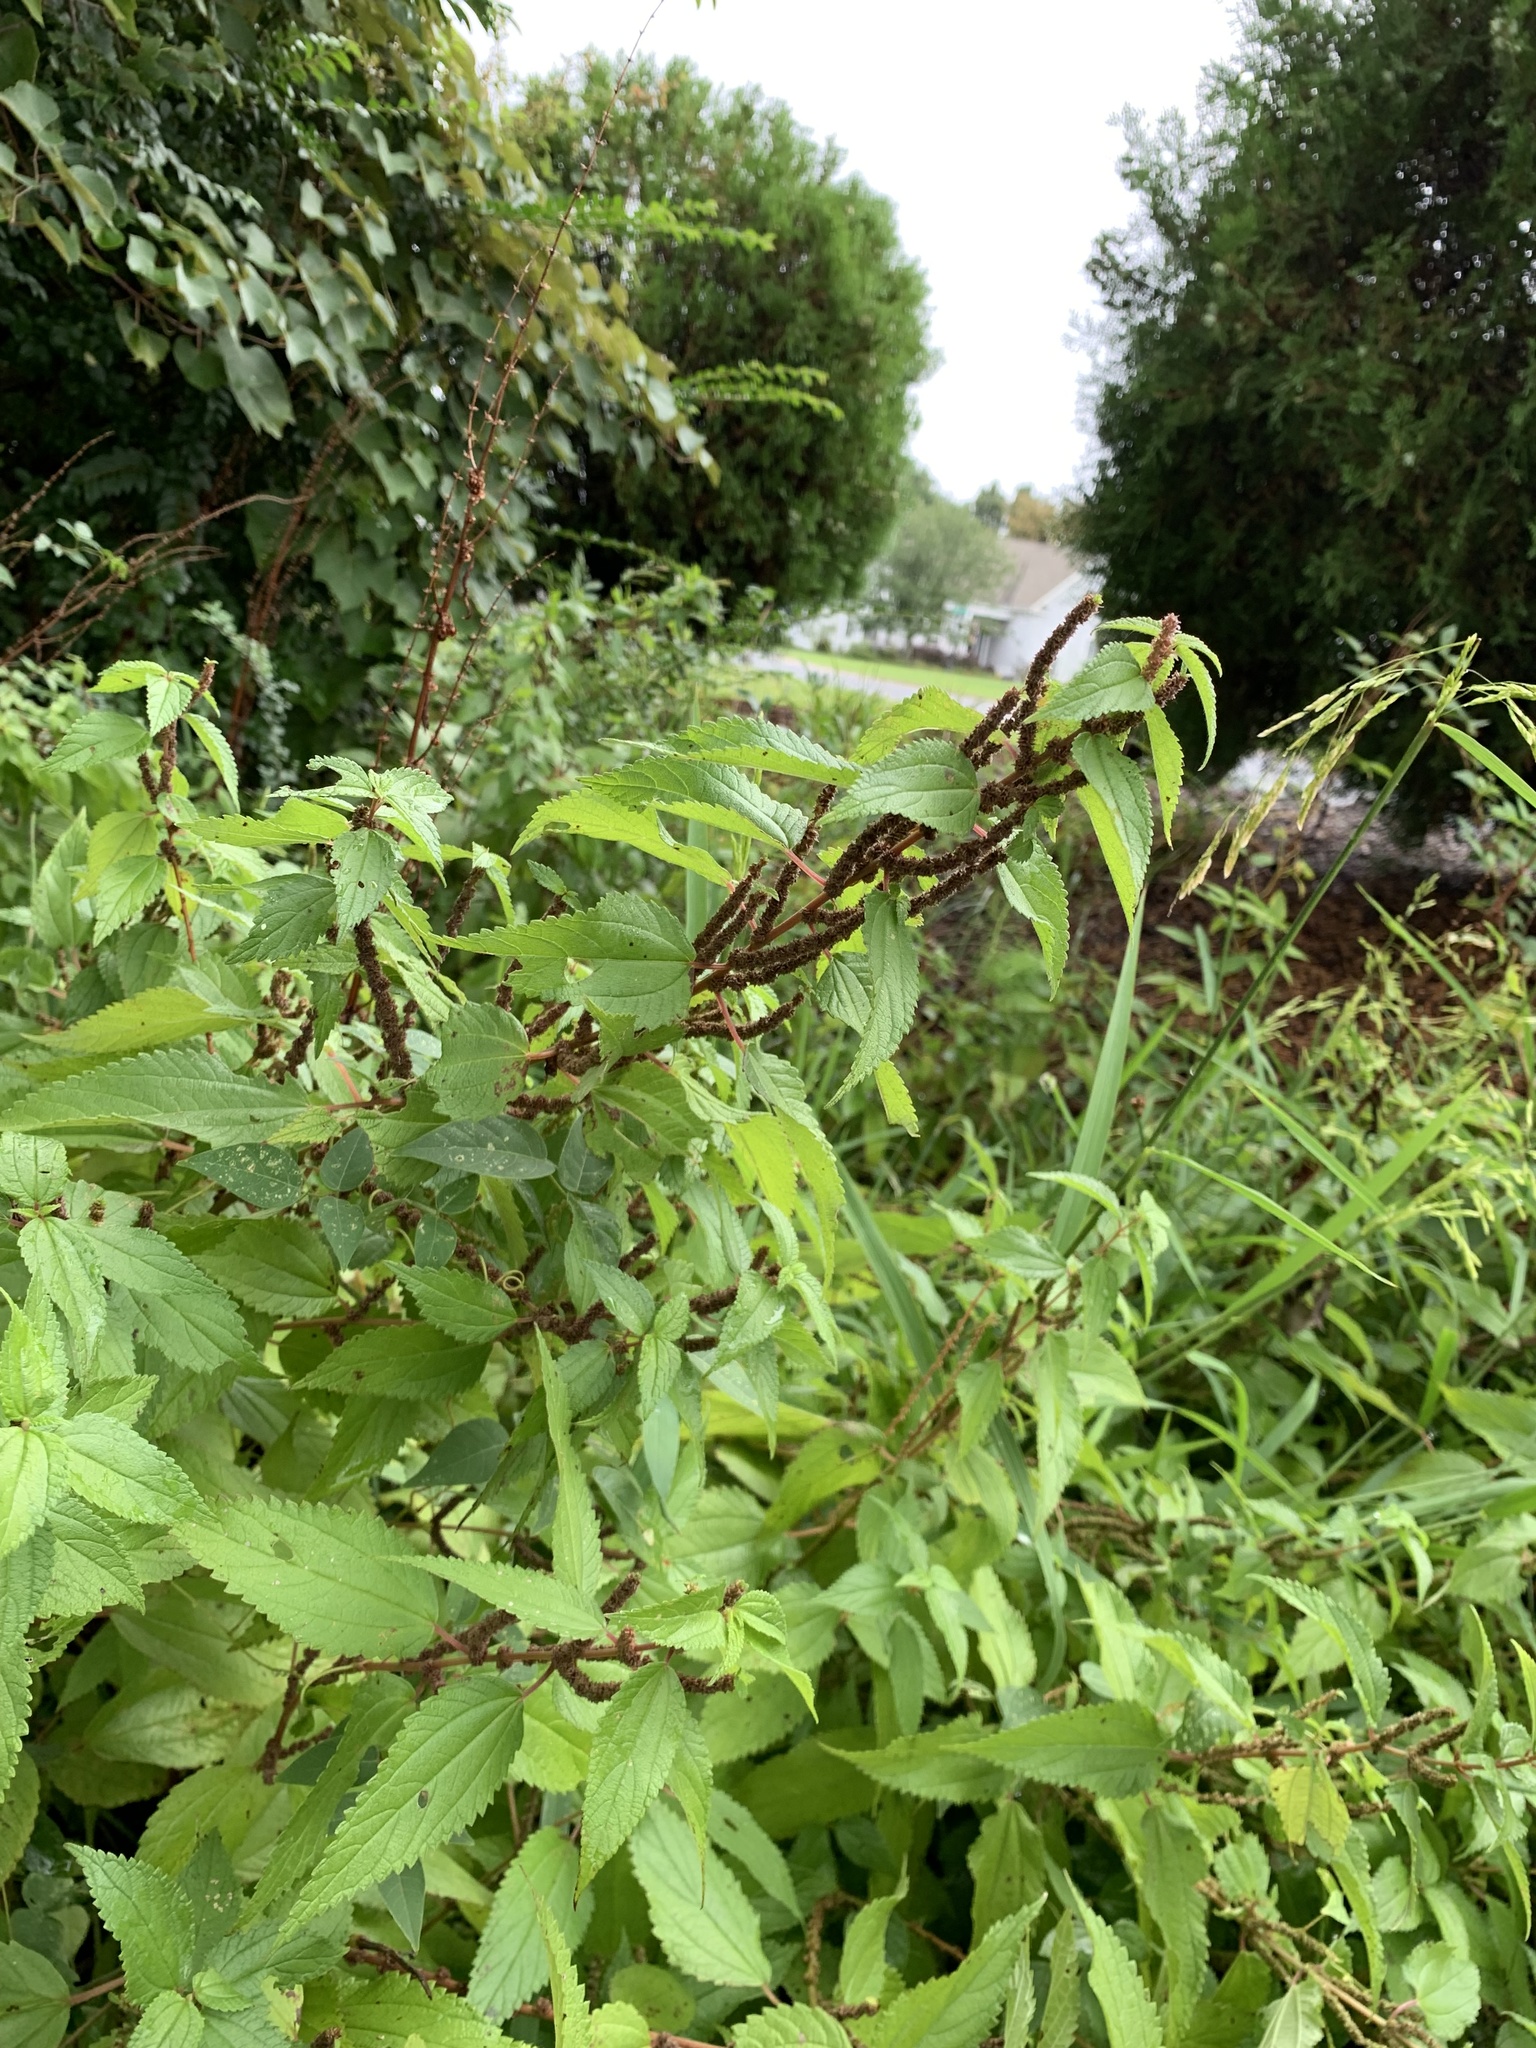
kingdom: Plantae
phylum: Tracheophyta
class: Magnoliopsida
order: Rosales
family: Urticaceae
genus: Boehmeria
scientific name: Boehmeria cylindrica
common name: Bog-hemp
